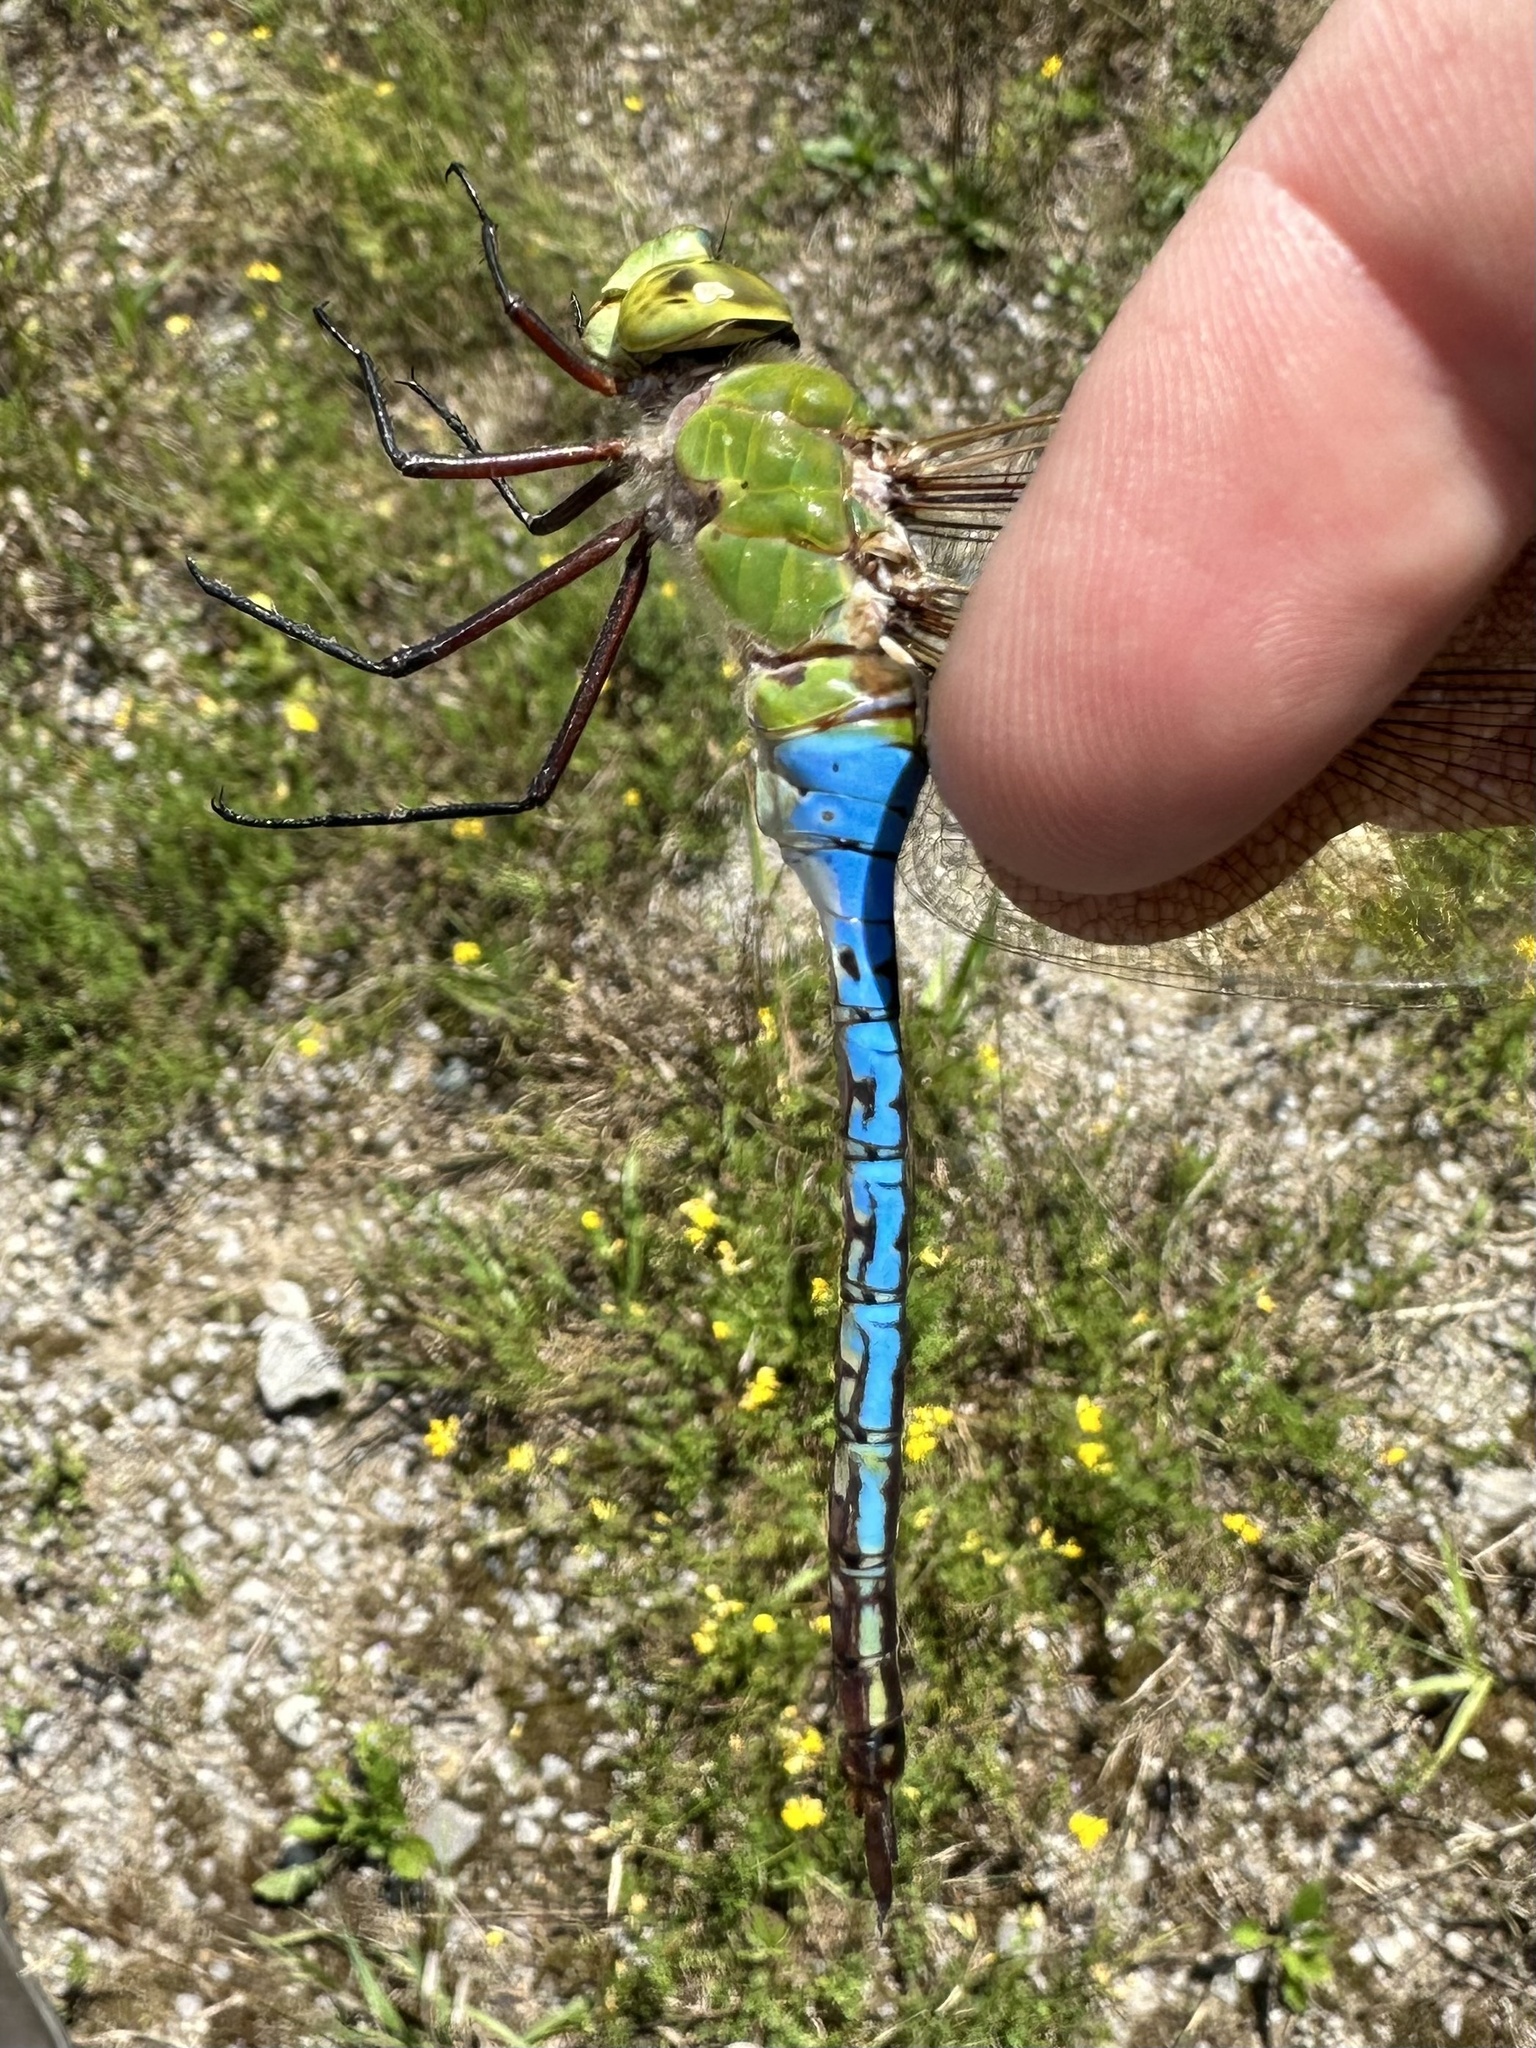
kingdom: Animalia
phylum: Arthropoda
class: Insecta
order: Odonata
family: Aeshnidae
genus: Anax
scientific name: Anax junius
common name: Common green darner
